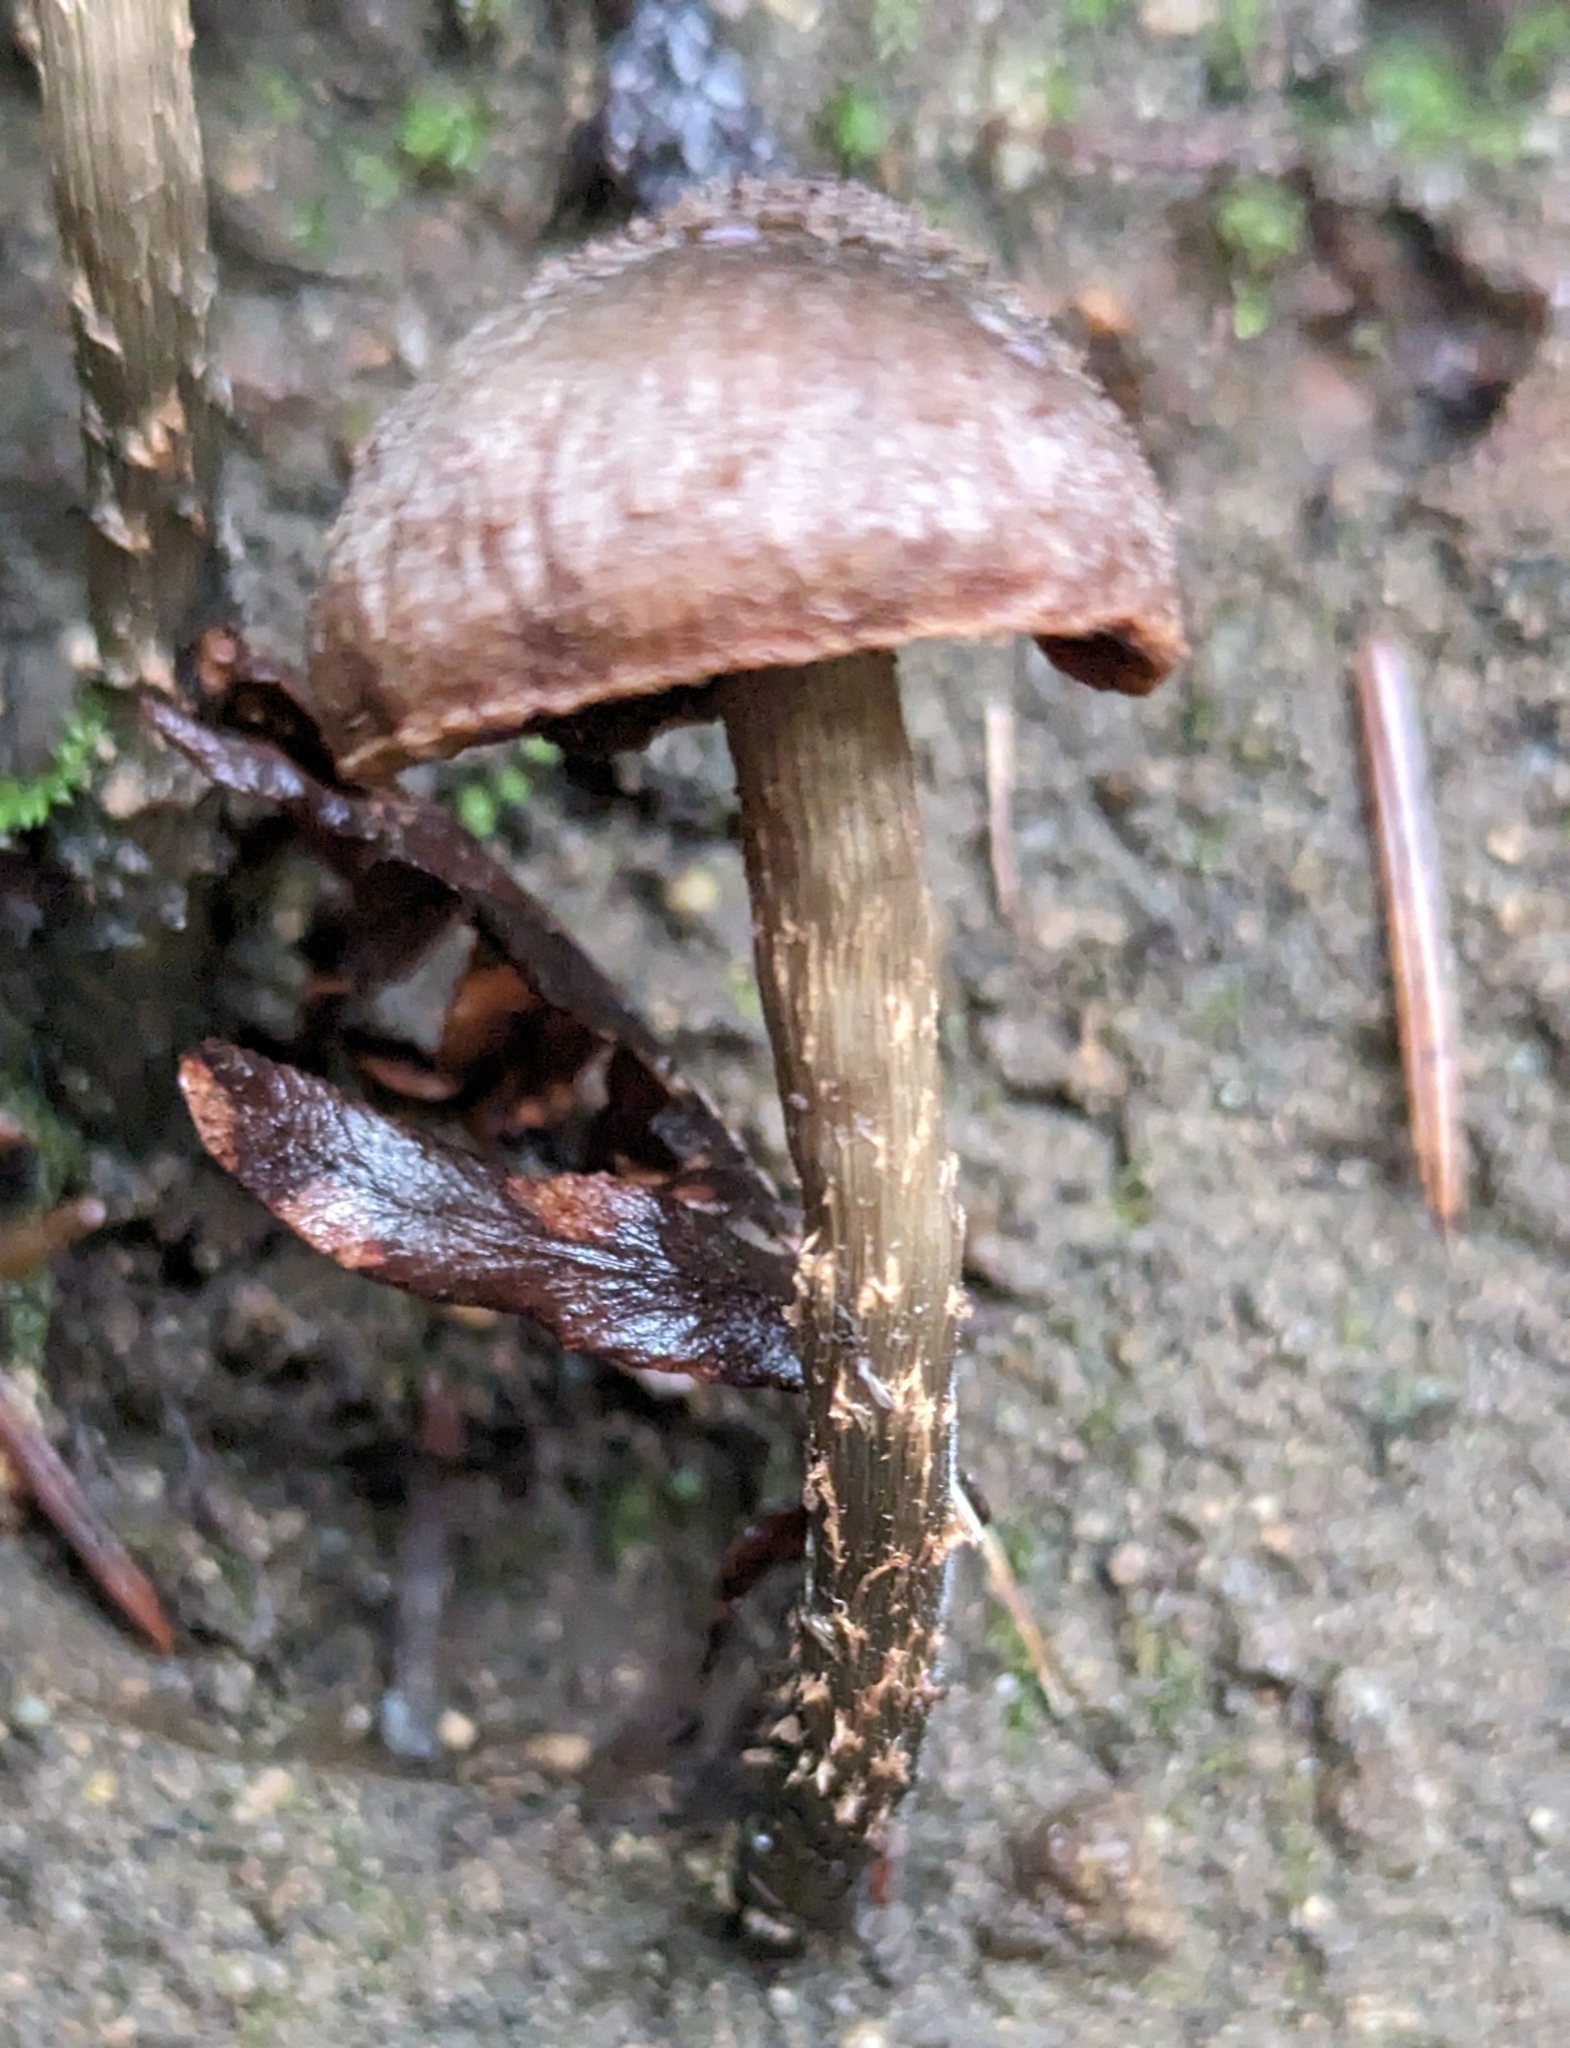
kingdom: Fungi
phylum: Basidiomycota
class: Agaricomycetes
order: Agaricales
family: Inocybaceae
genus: Inosperma
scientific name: Inosperma calamistratum
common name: Greenfoot fibrecap
